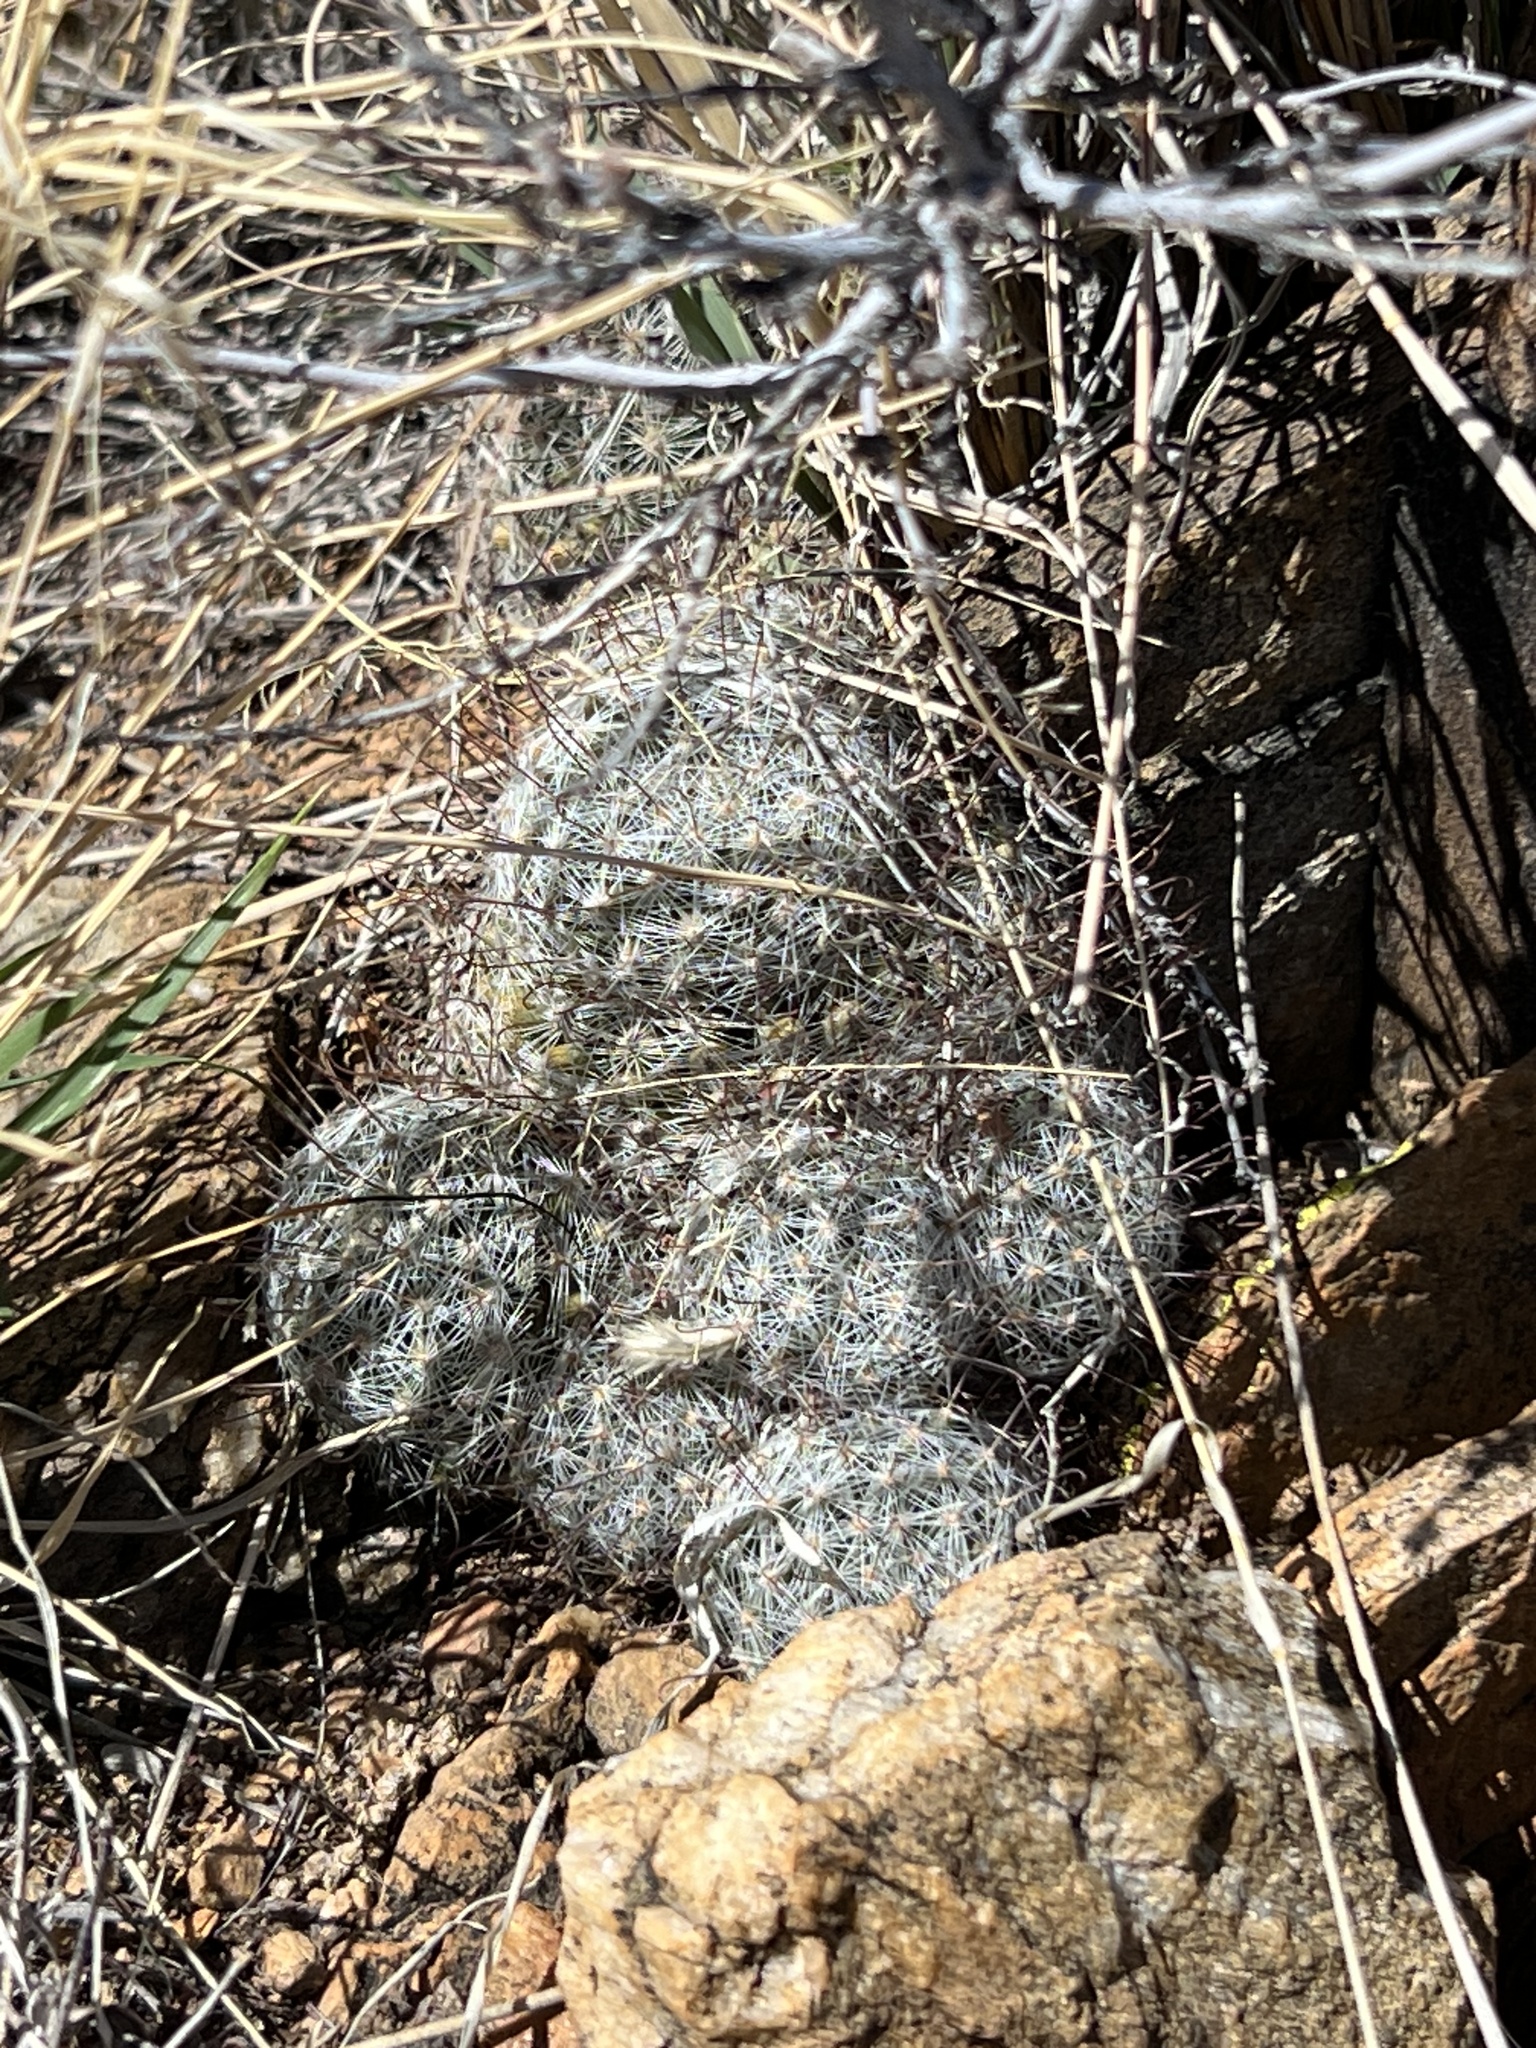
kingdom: Plantae
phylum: Tracheophyta
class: Magnoliopsida
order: Caryophyllales
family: Cactaceae
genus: Cochemiea
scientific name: Cochemiea grahamii
